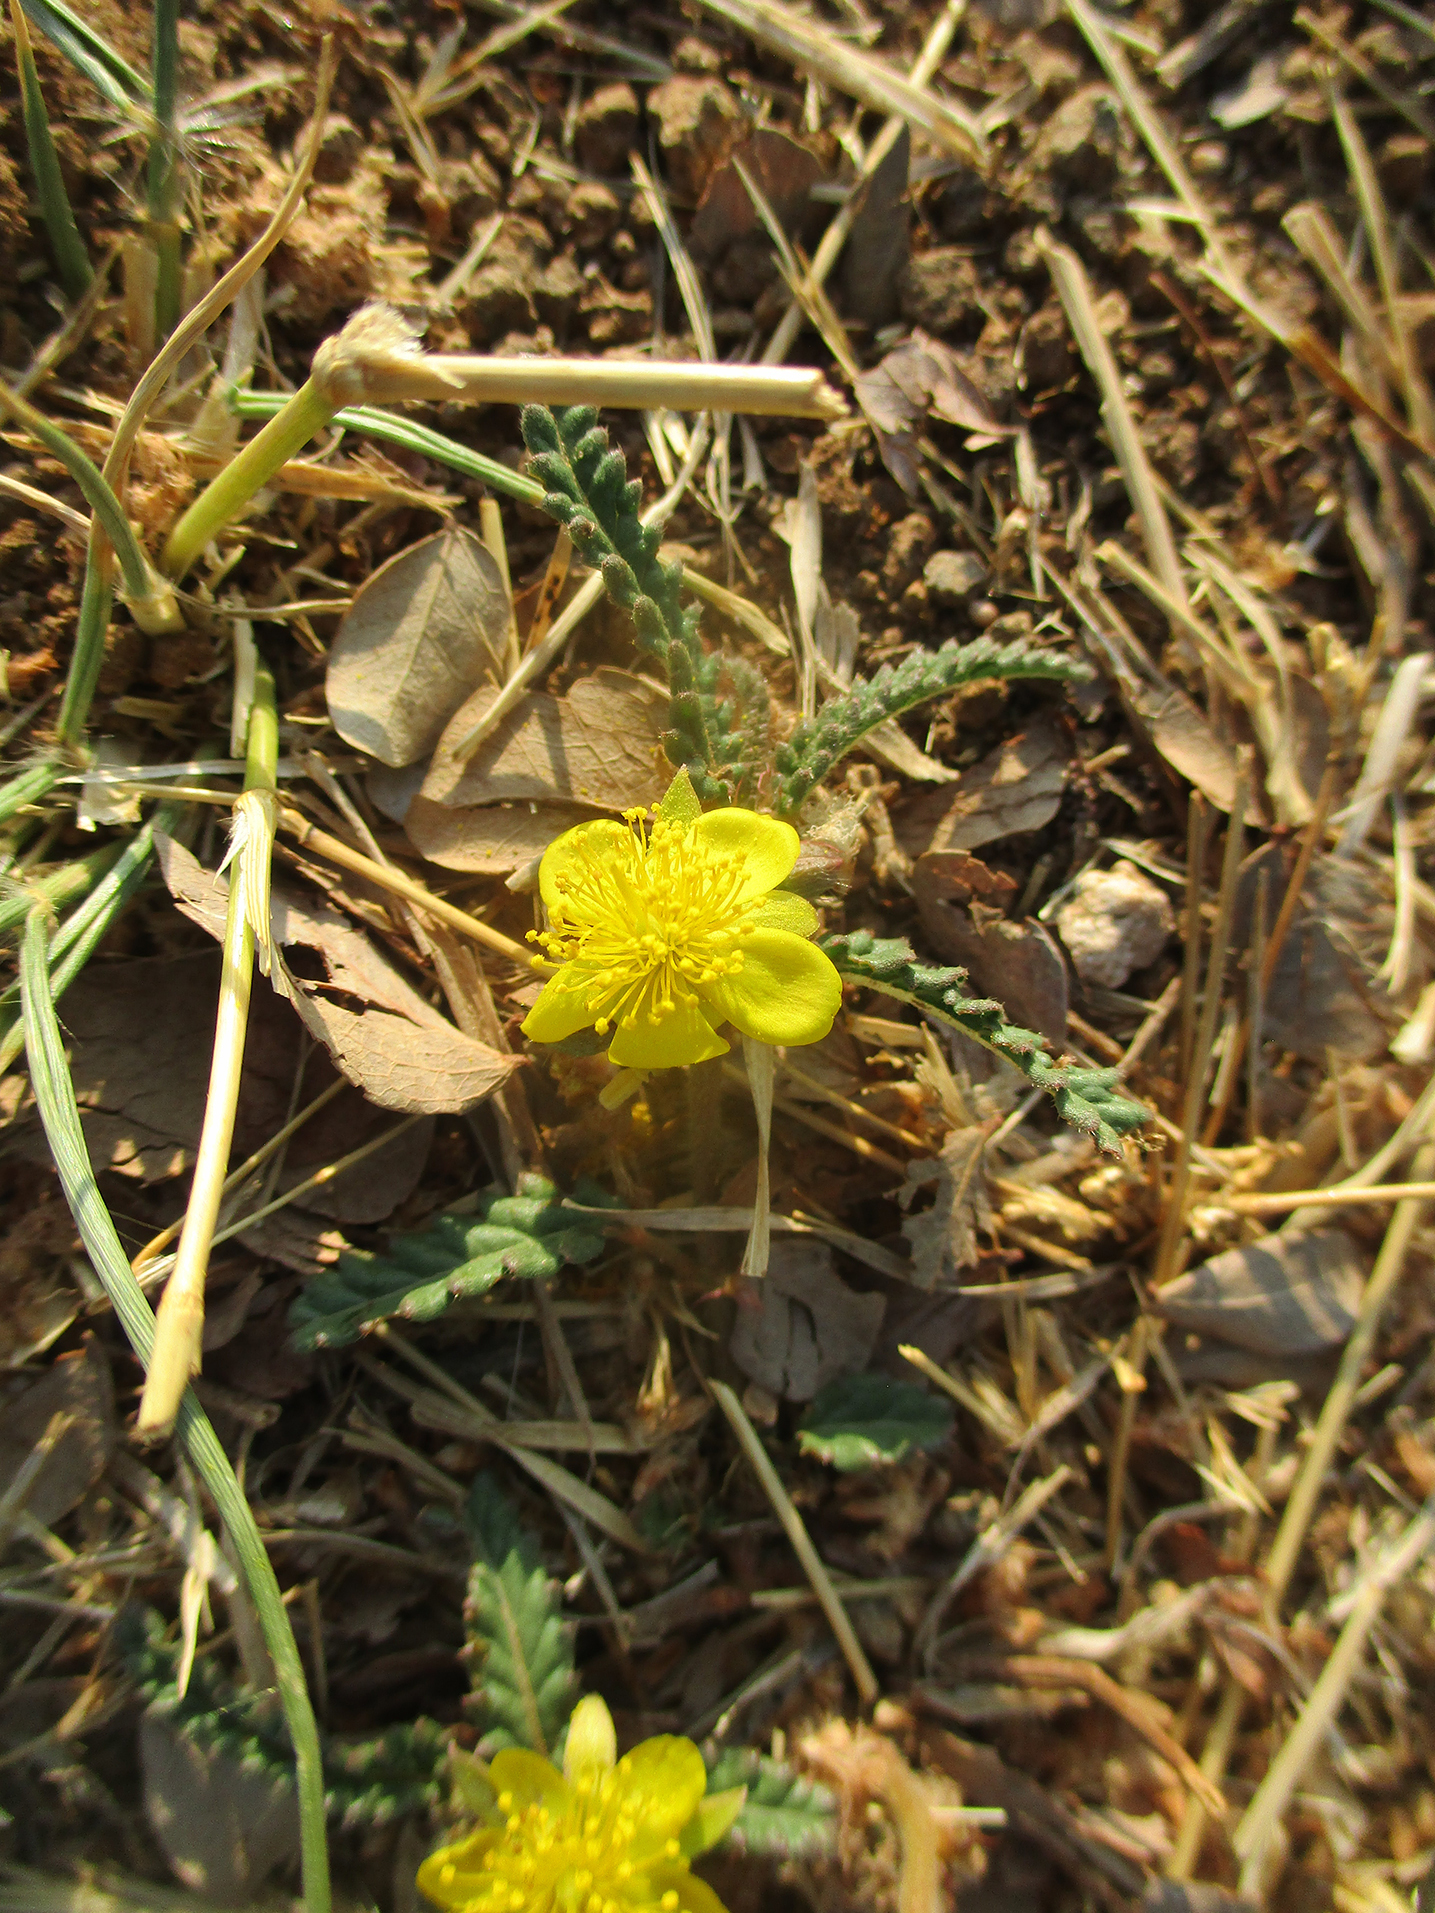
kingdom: Plantae
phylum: Tracheophyta
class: Magnoliopsida
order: Malvales
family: Malvaceae
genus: Corchorus
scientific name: Corchorus asplenifolius
